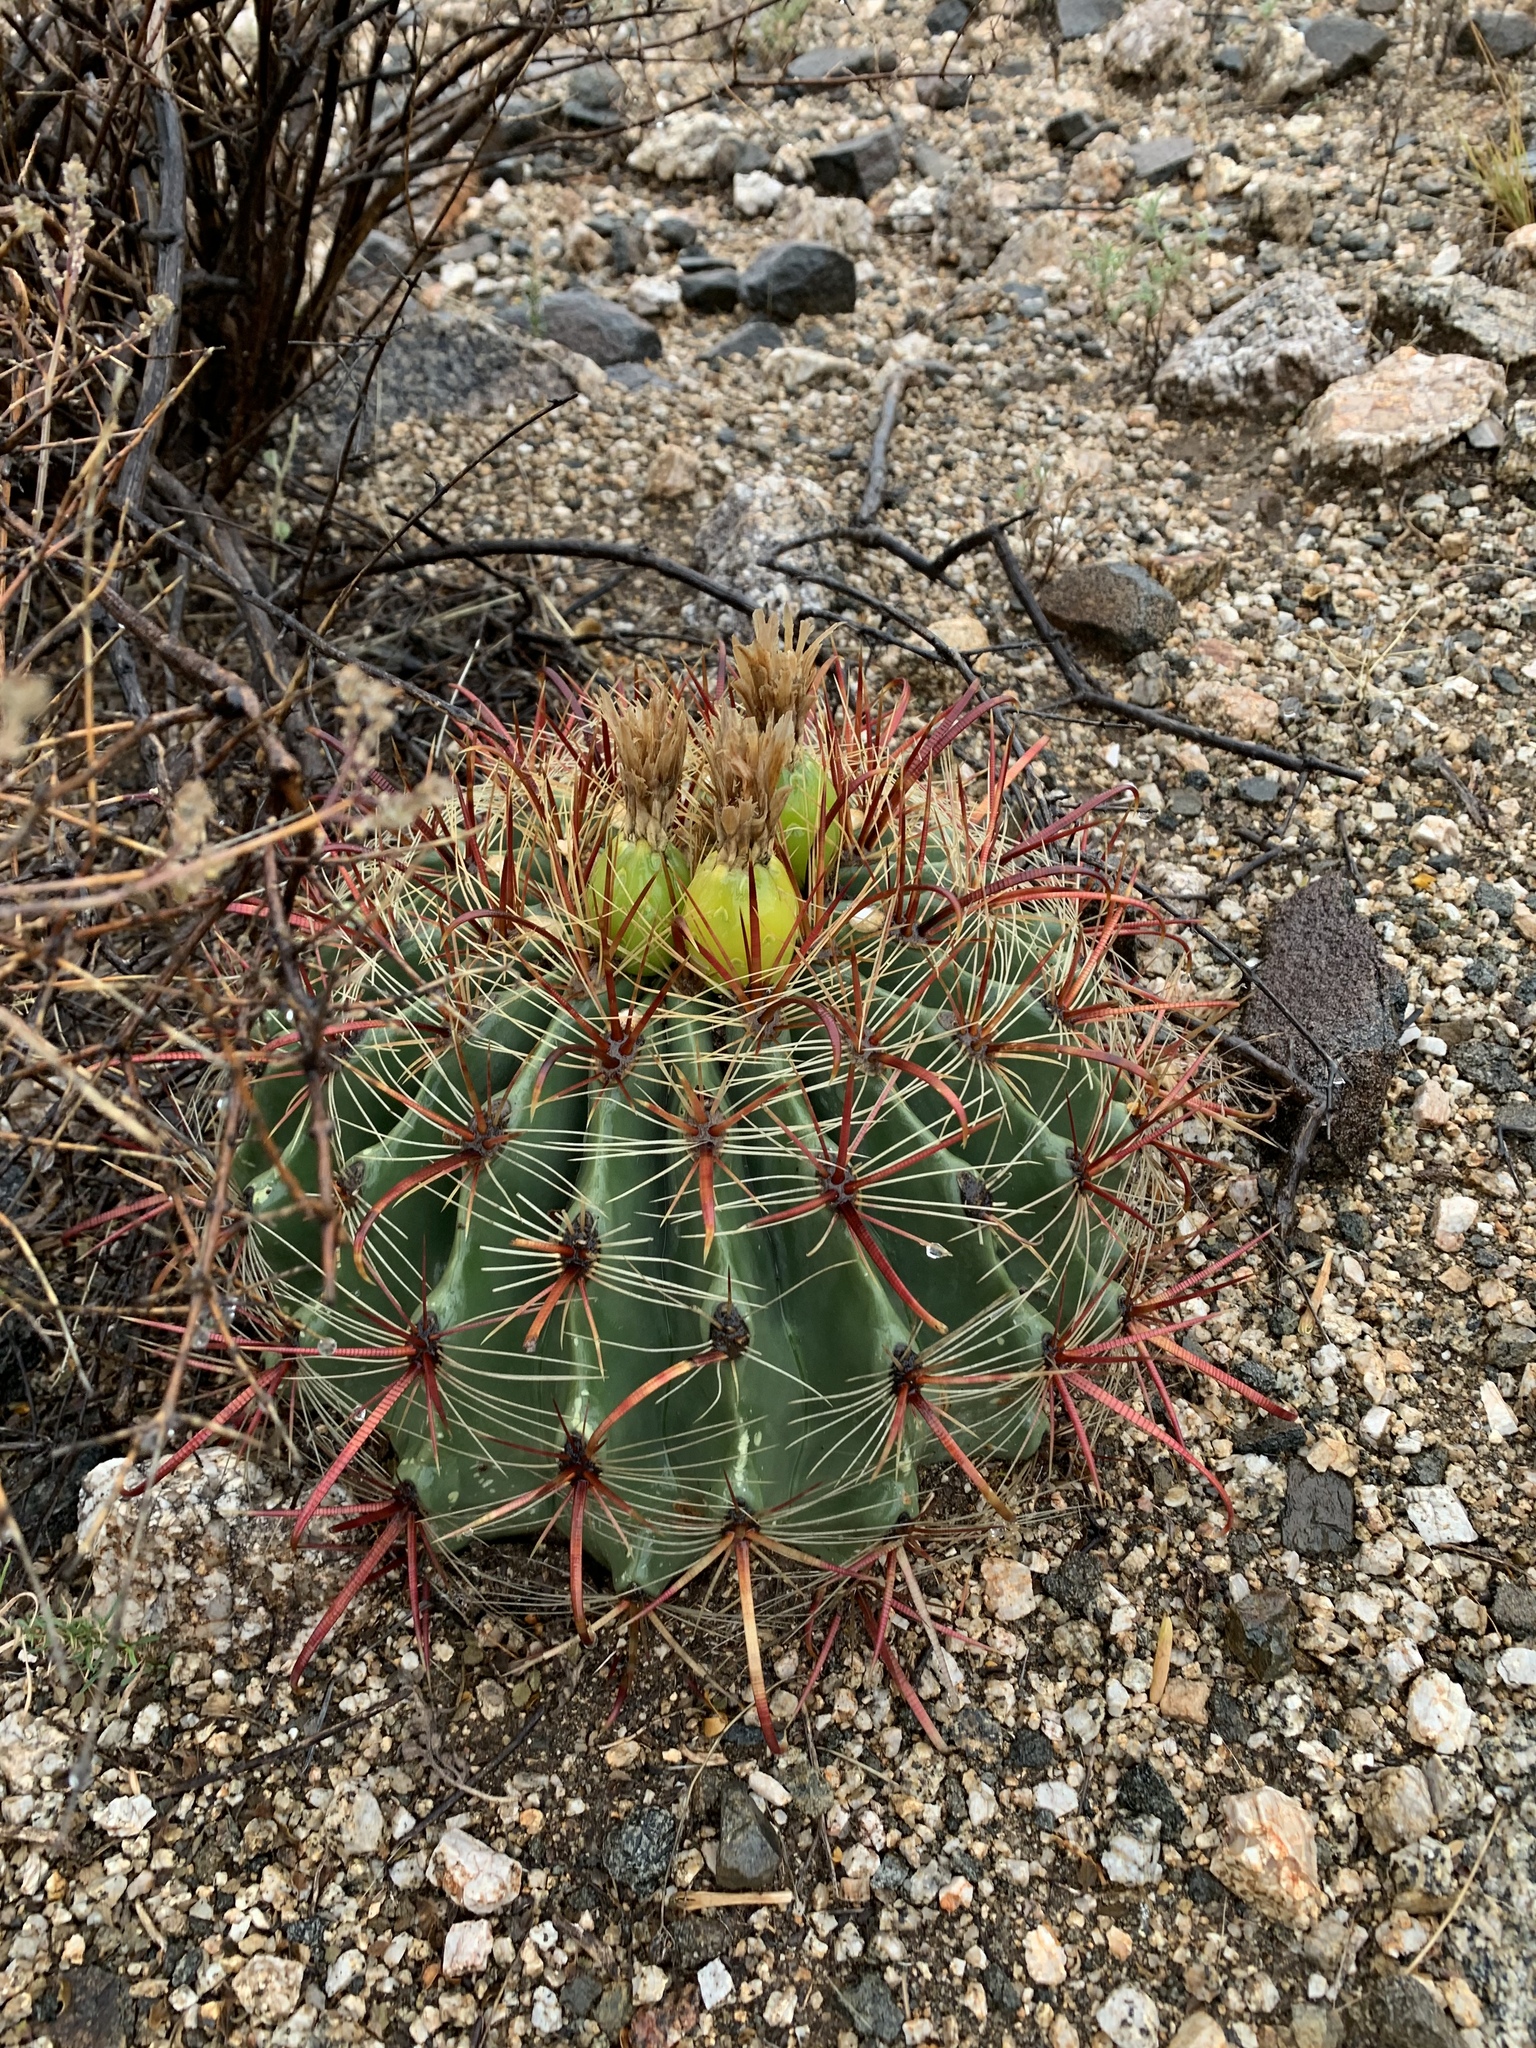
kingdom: Plantae
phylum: Tracheophyta
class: Magnoliopsida
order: Caryophyllales
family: Cactaceae
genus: Ferocactus
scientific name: Ferocactus wislizeni
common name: Candy barrel cactus
